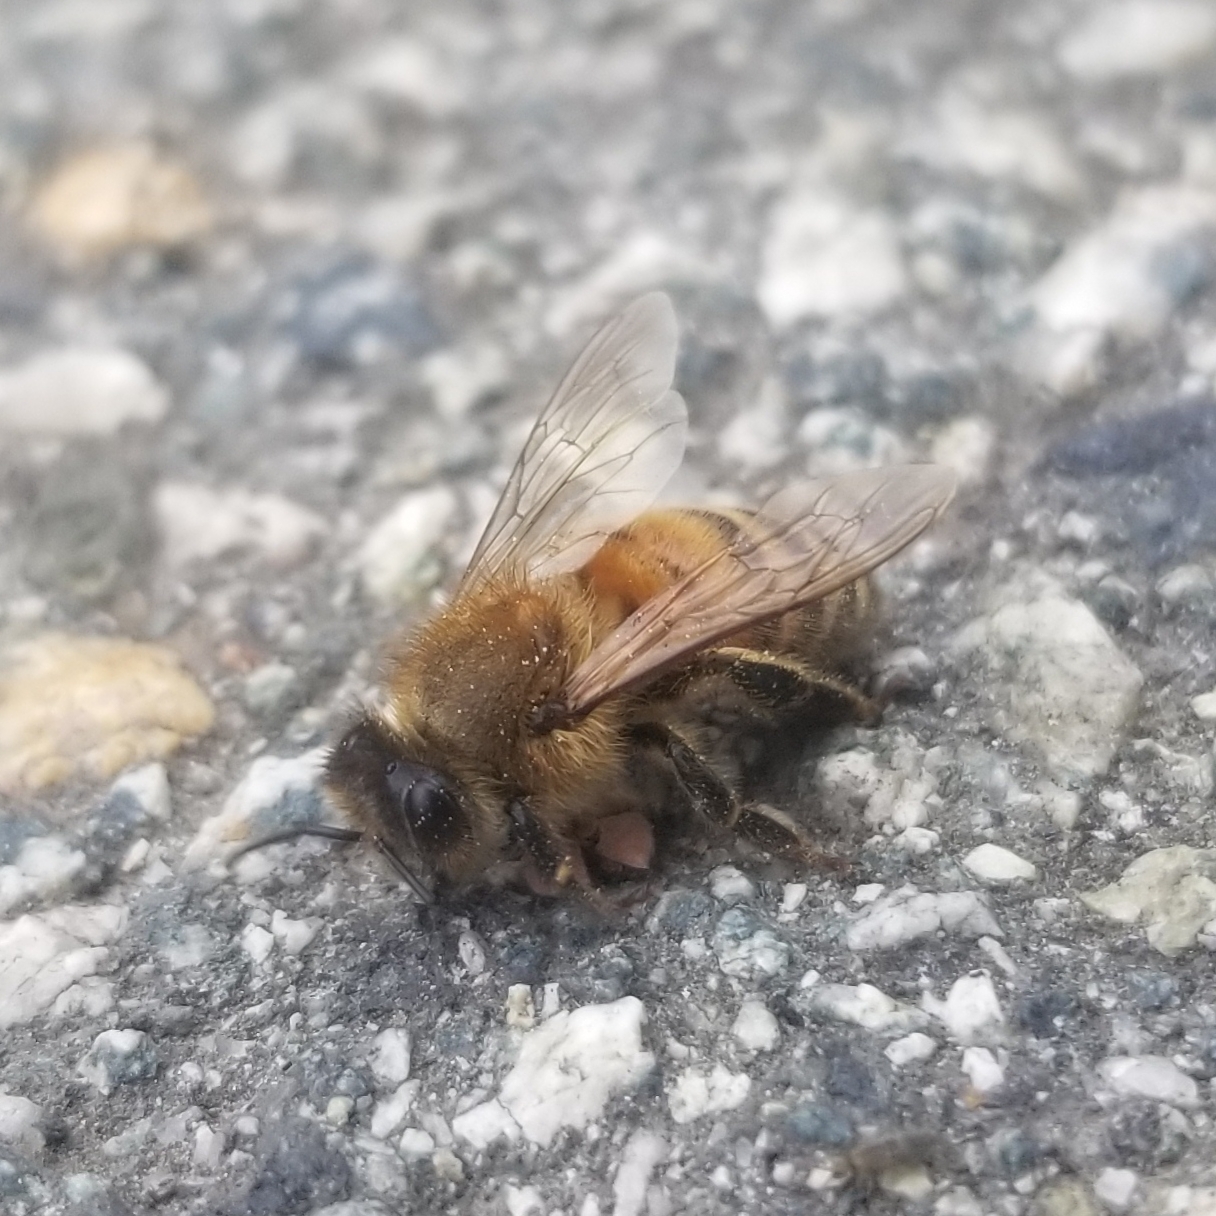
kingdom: Animalia
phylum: Arthropoda
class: Insecta
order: Hymenoptera
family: Apidae
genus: Apis
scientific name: Apis mellifera
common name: Honey bee
